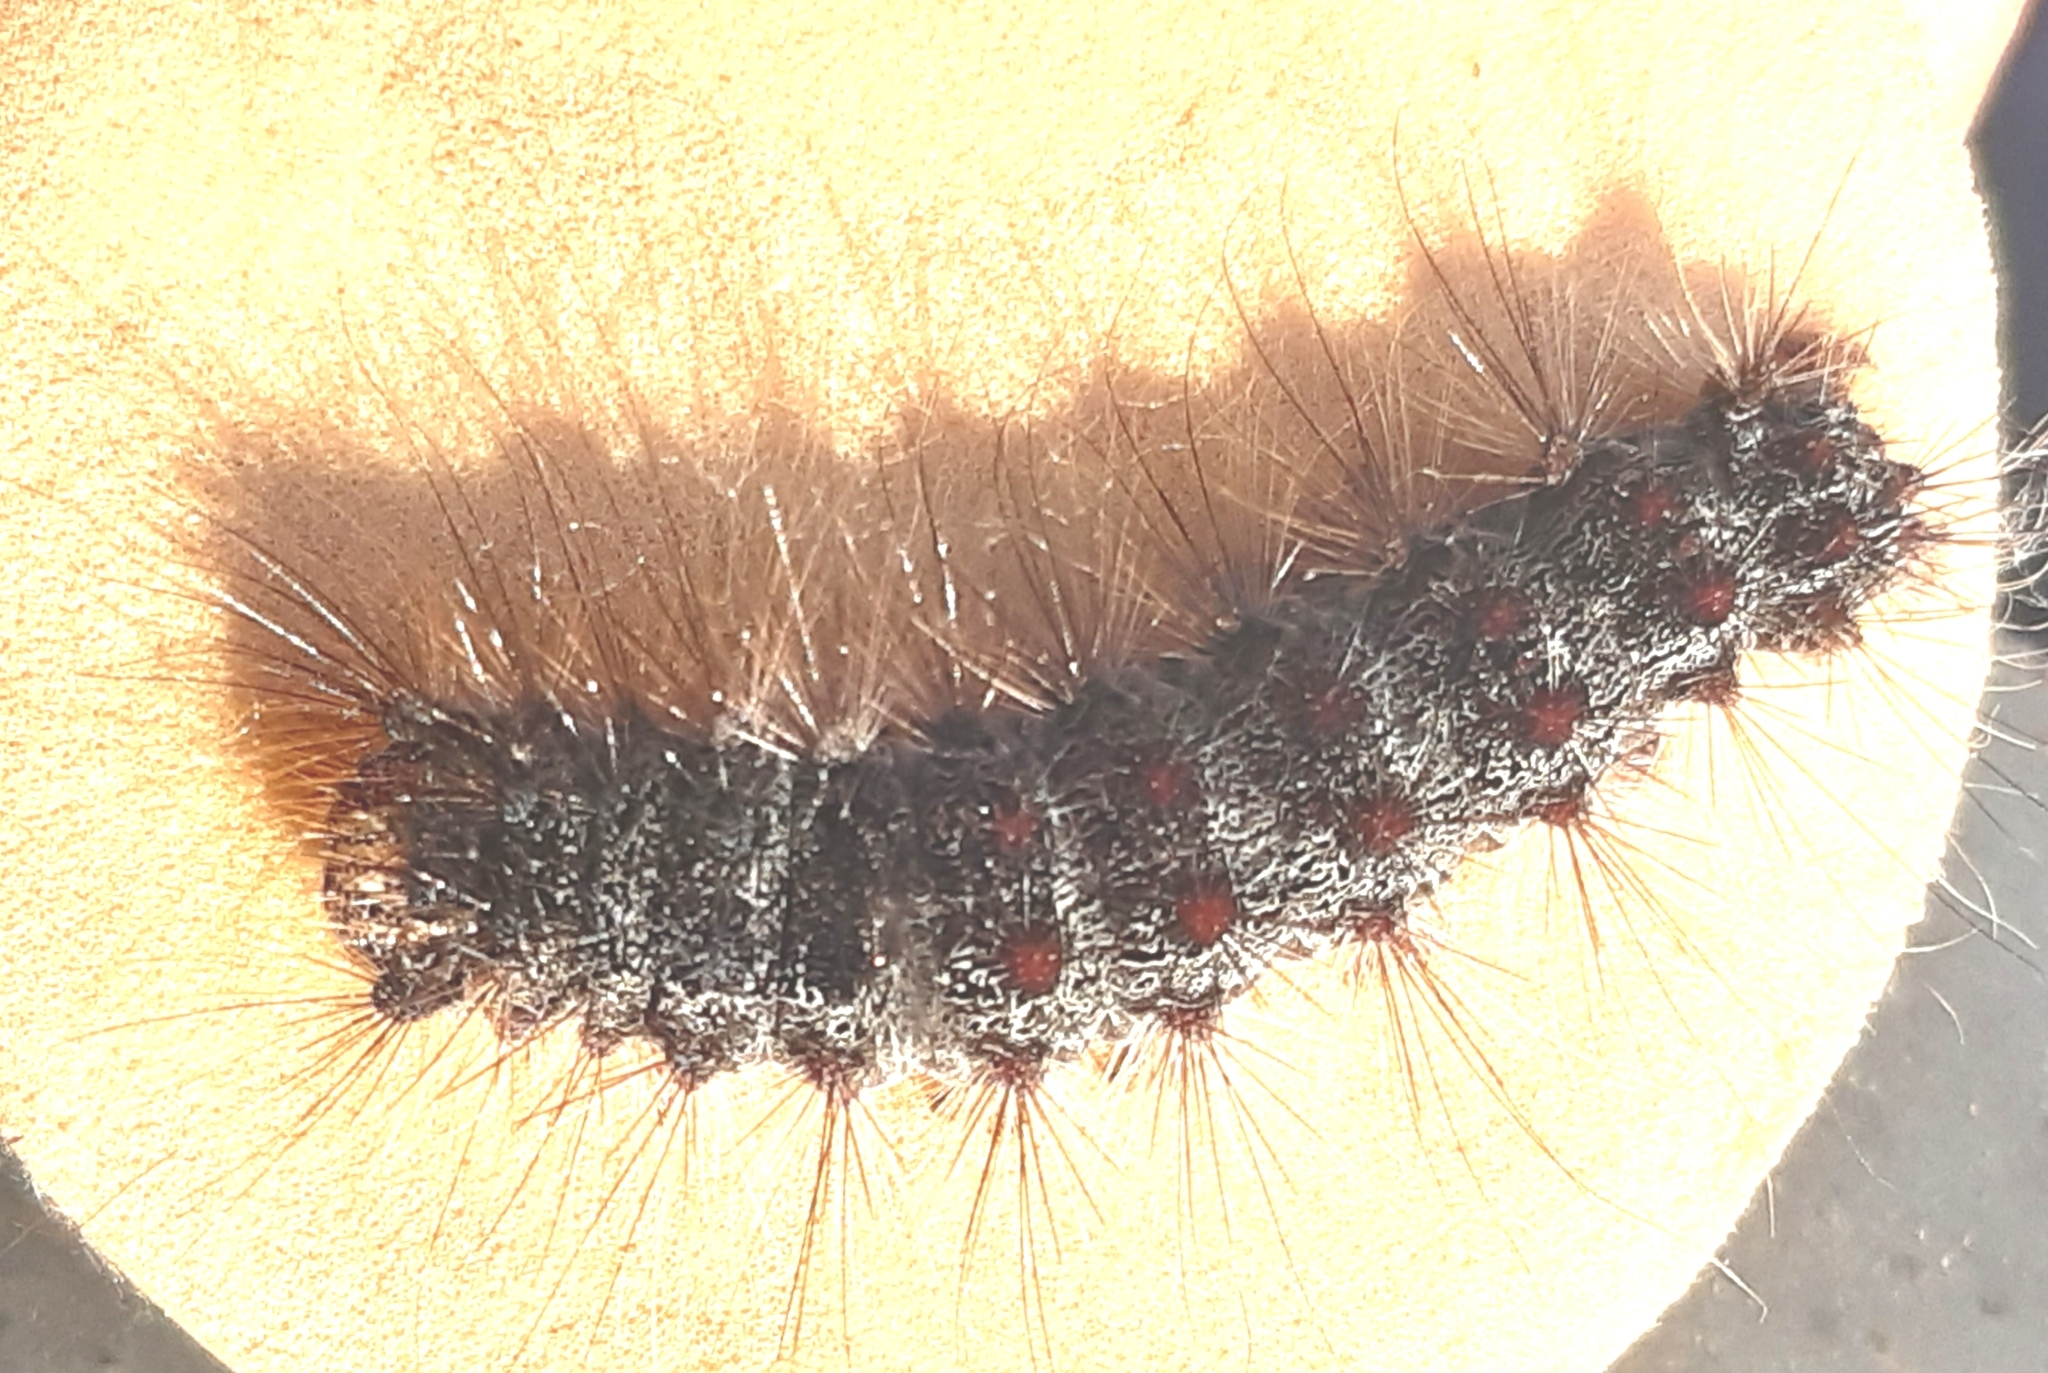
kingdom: Animalia
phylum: Arthropoda
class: Insecta
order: Lepidoptera
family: Erebidae
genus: Lymantria
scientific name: Lymantria dispar
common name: Gypsy moth
